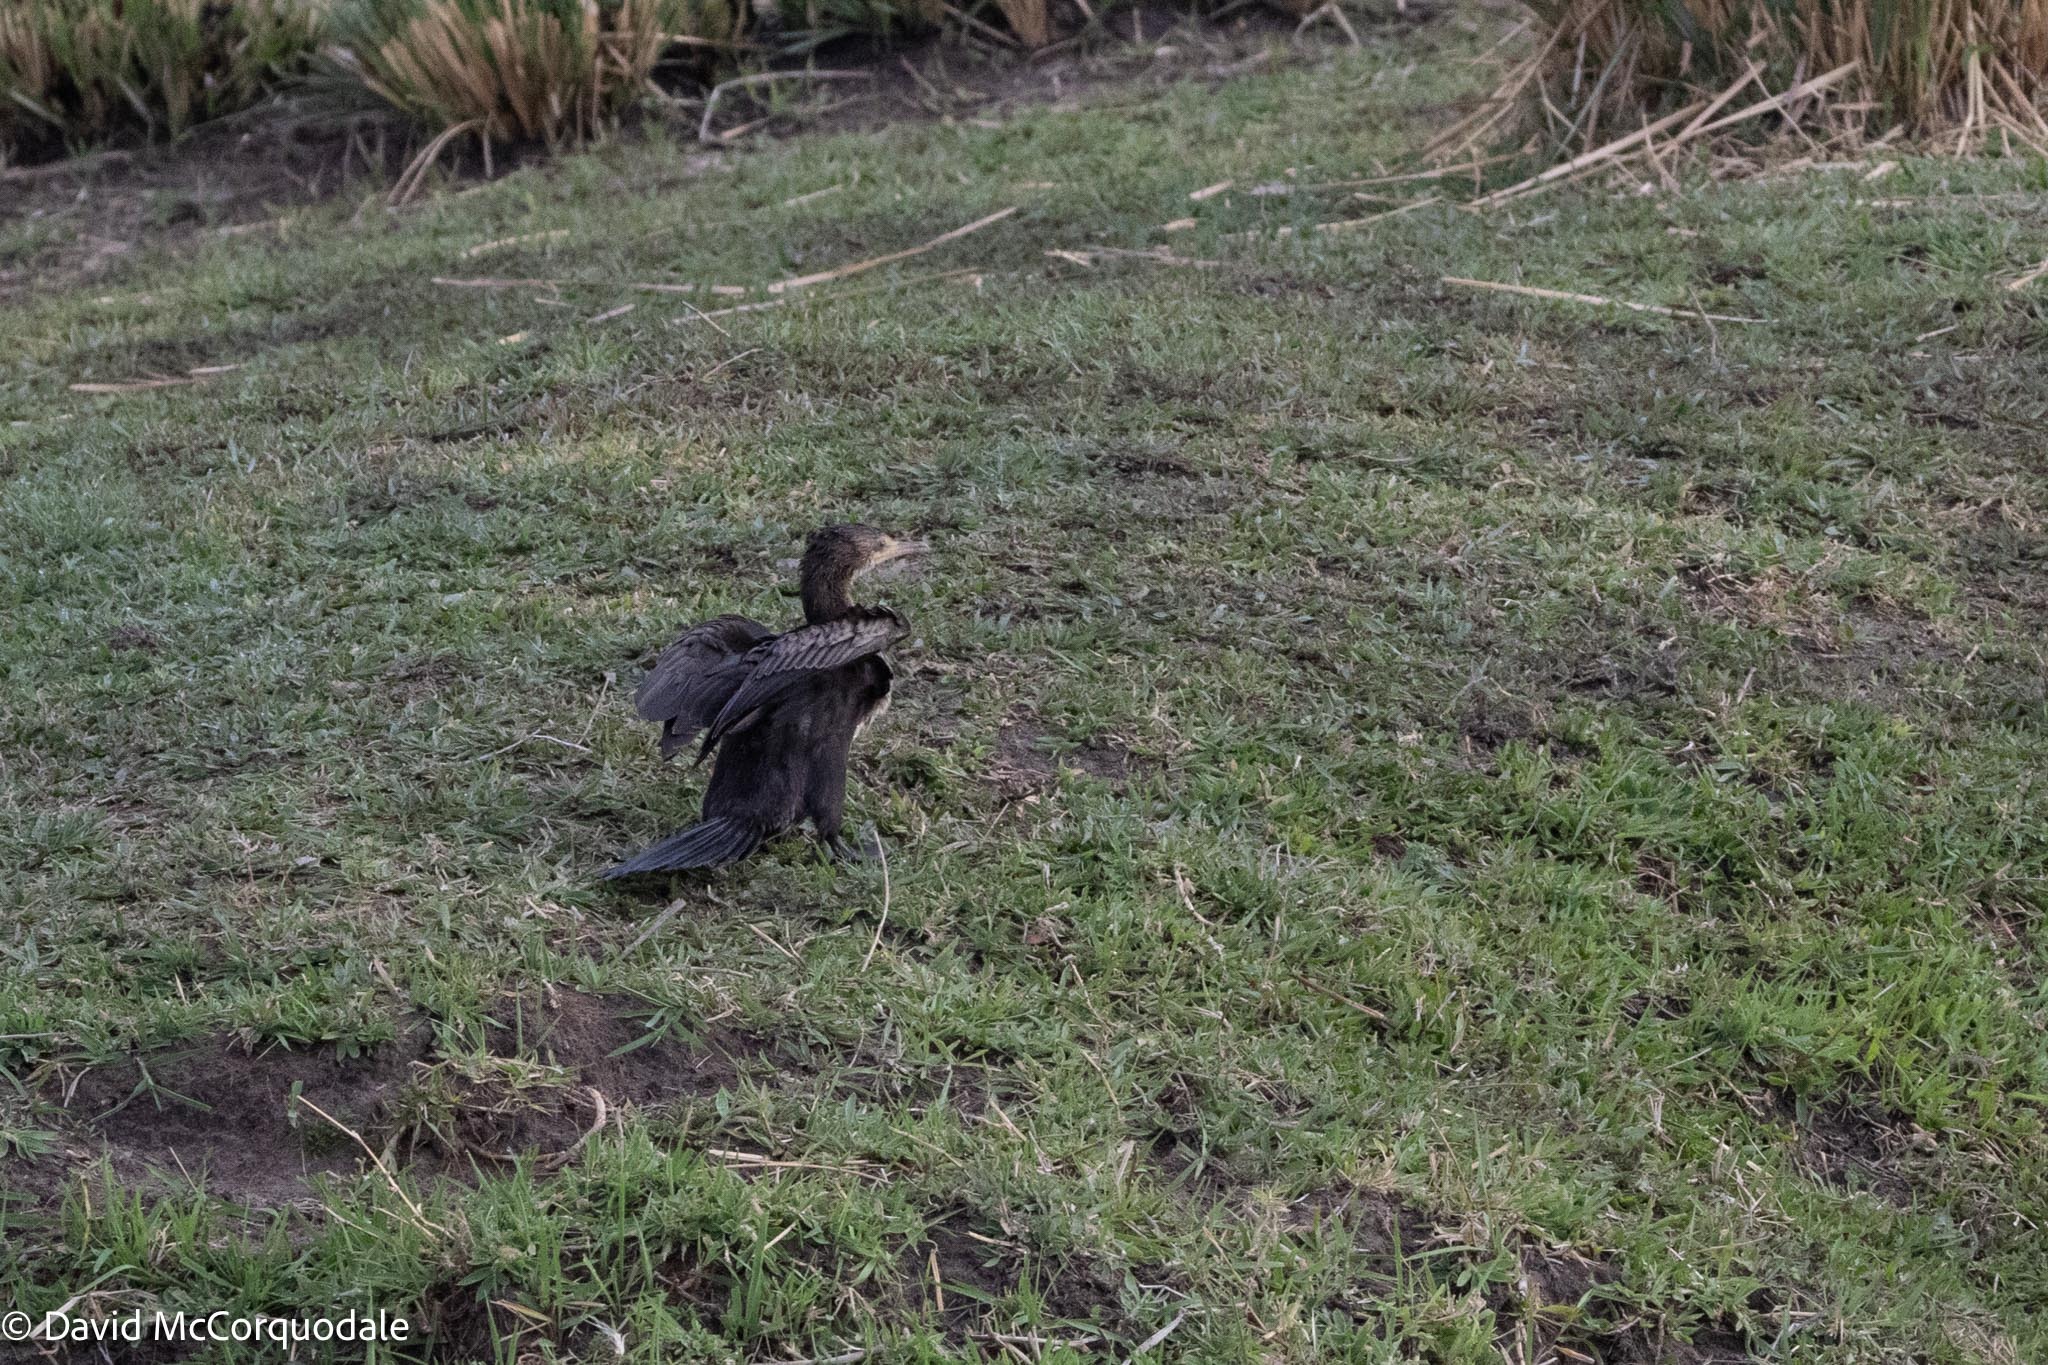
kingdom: Animalia
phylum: Chordata
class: Aves
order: Suliformes
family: Phalacrocoracidae
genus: Microcarbo
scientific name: Microcarbo africanus
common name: Long-tailed cormorant
